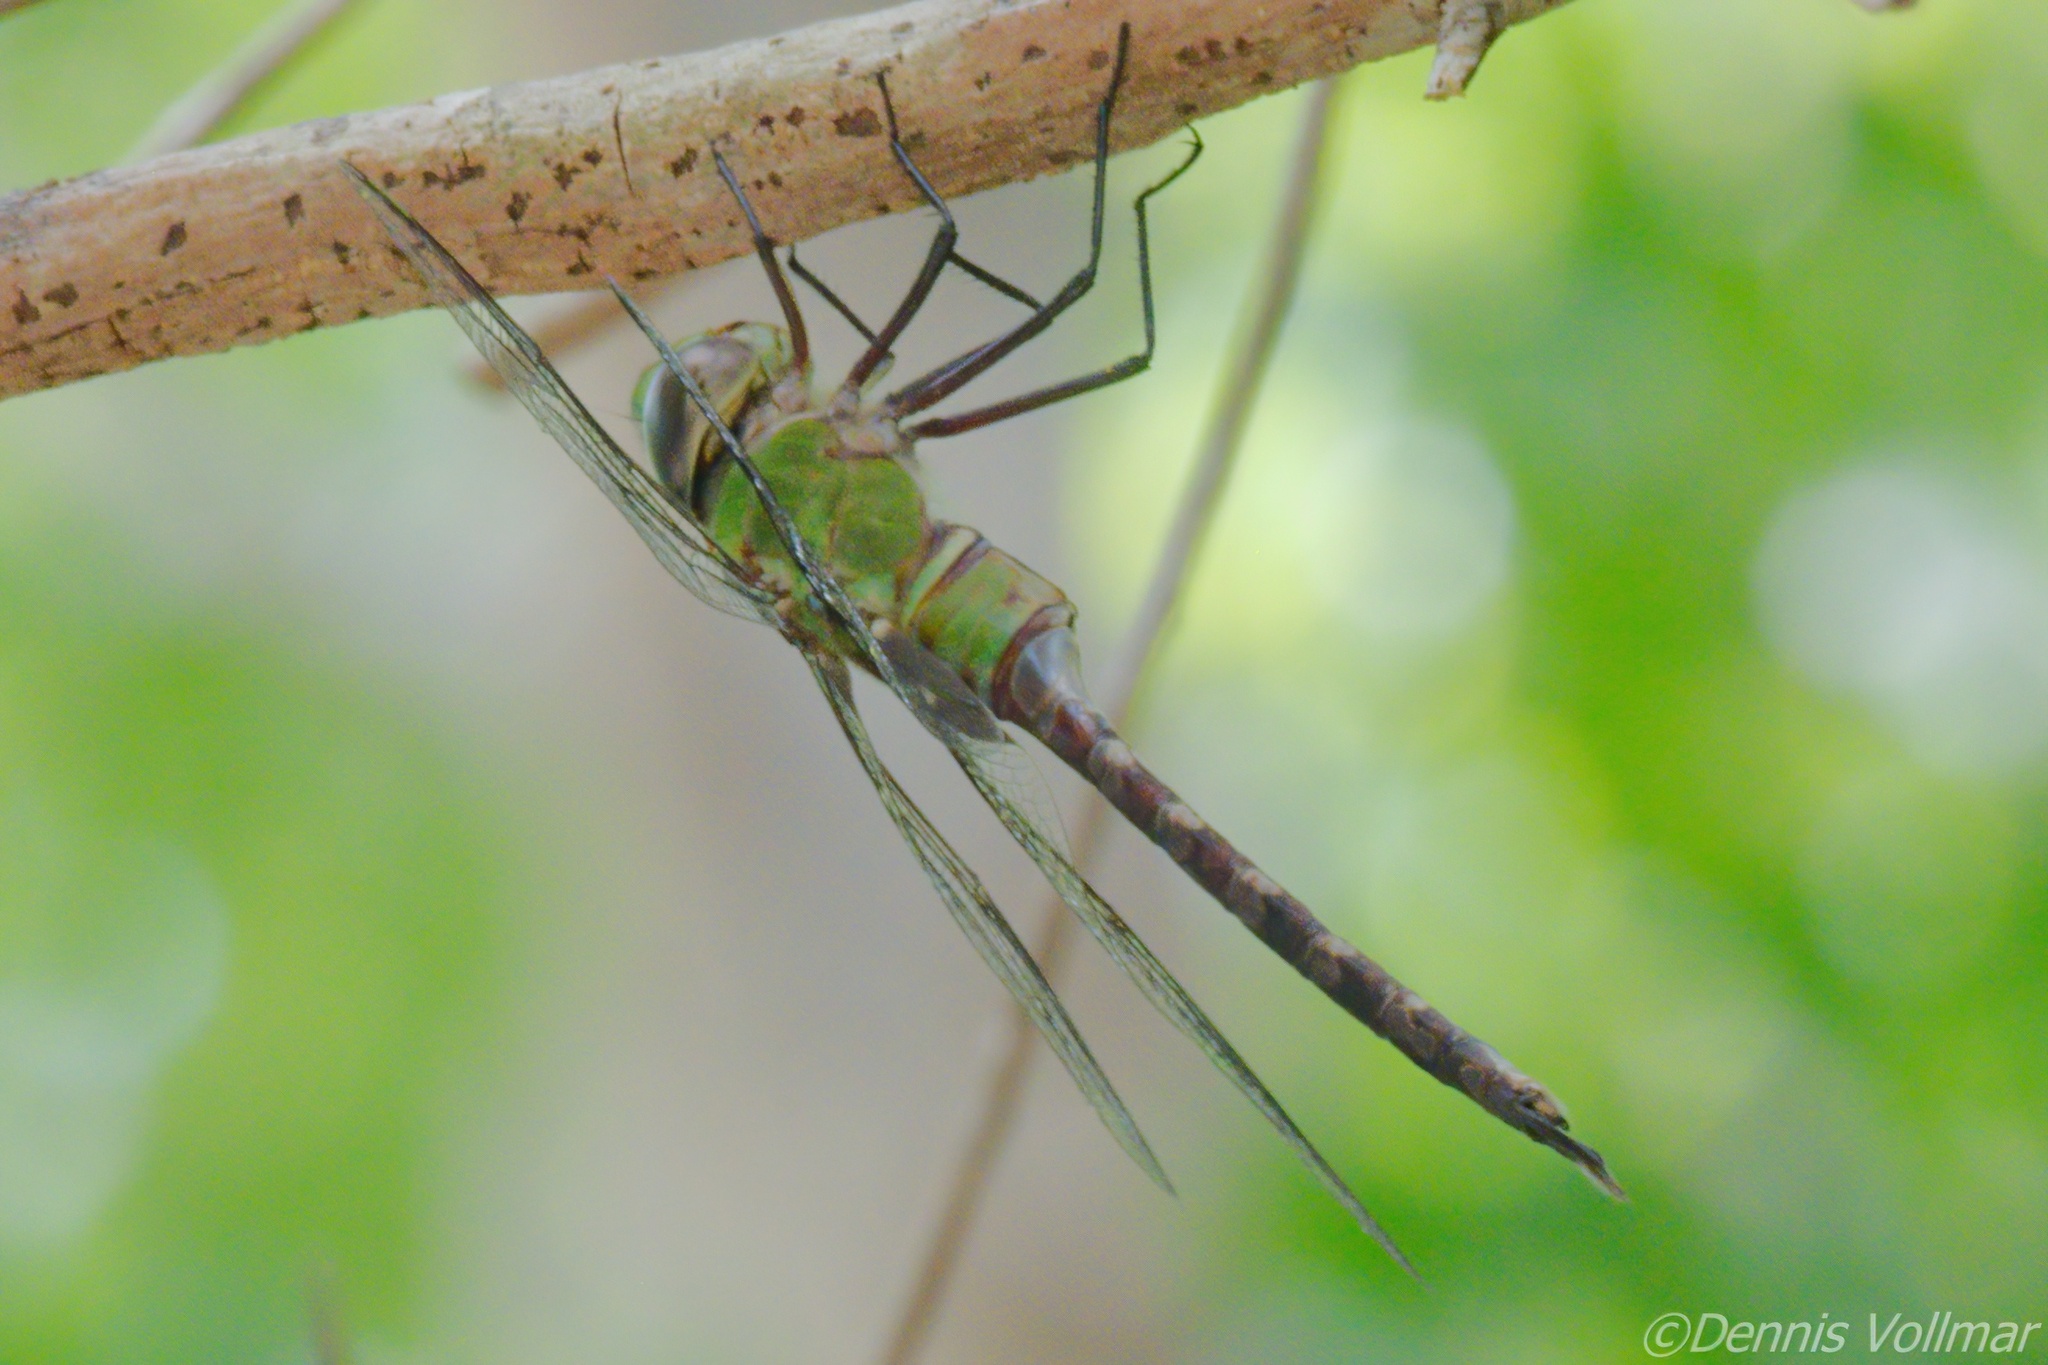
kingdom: Animalia
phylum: Arthropoda
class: Insecta
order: Odonata
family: Aeshnidae
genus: Anax
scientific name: Anax amazili
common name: Amazon darner
